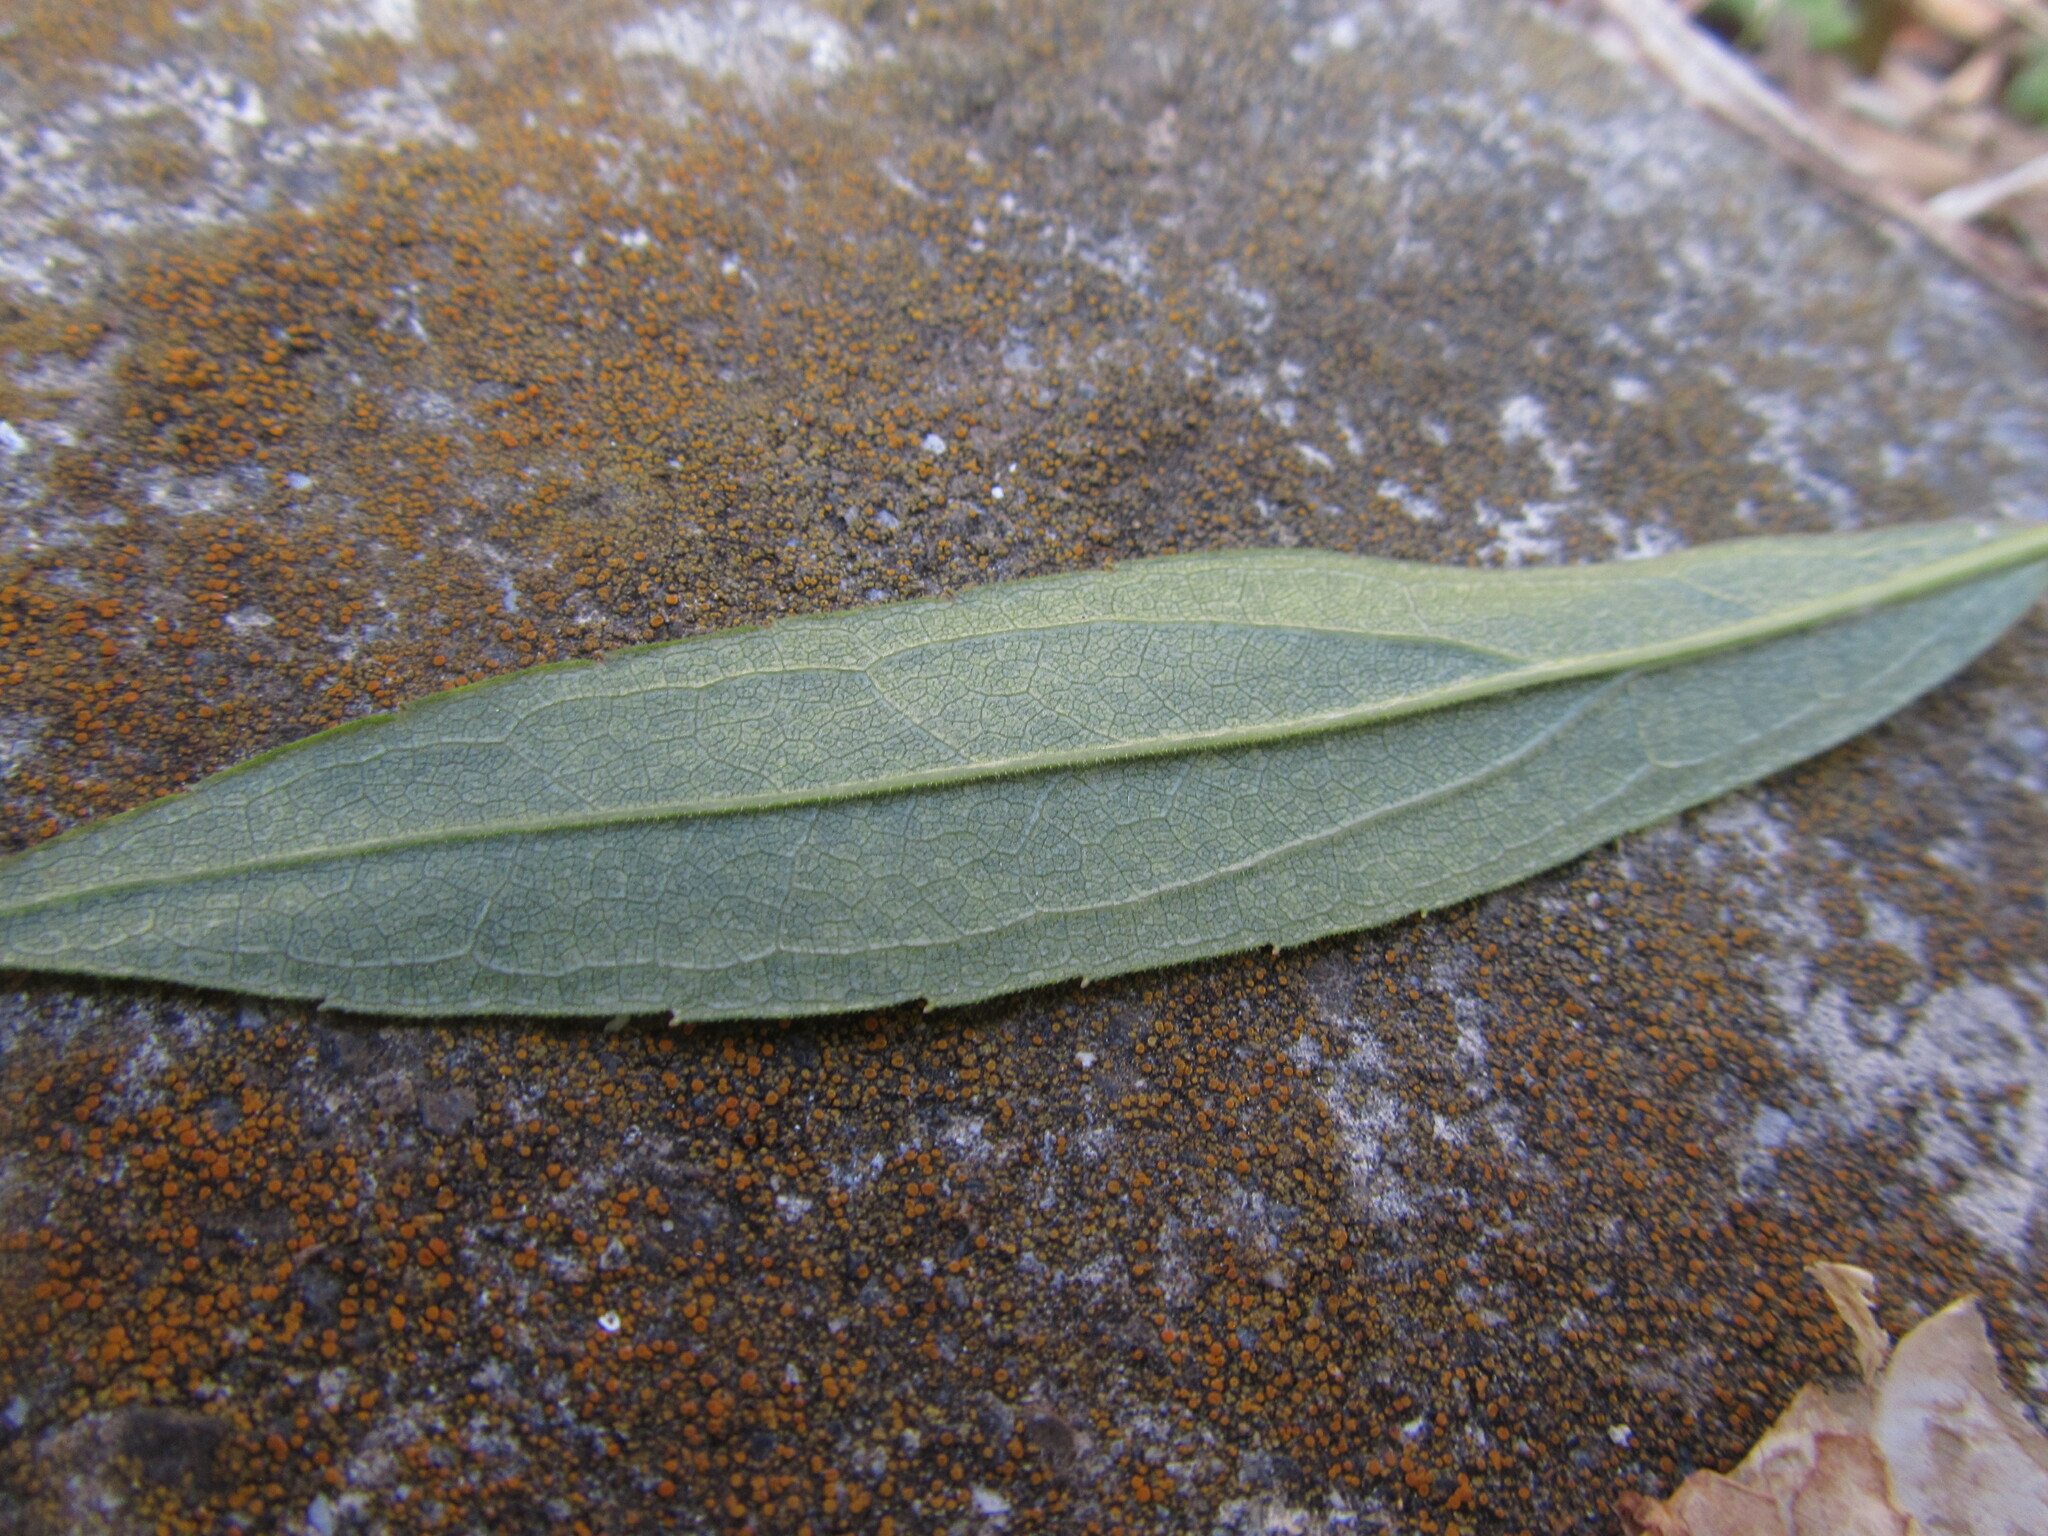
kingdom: Plantae
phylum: Tracheophyta
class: Magnoliopsida
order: Asterales
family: Asteraceae
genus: Solidago
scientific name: Solidago altissima
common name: Late goldenrod
